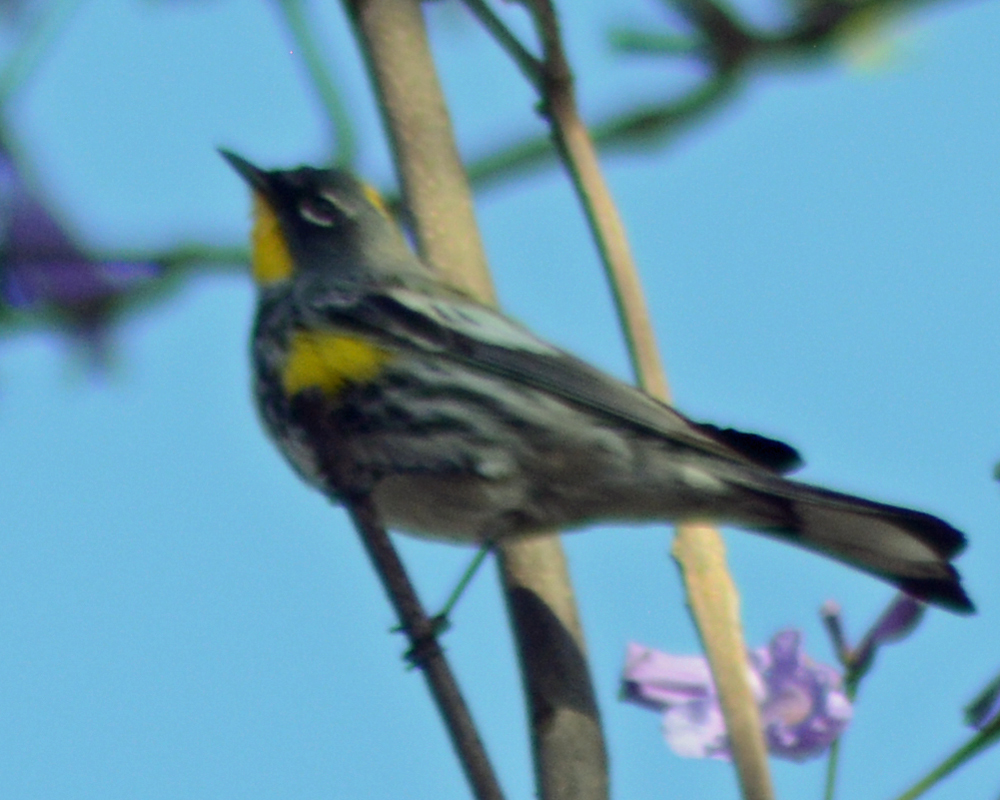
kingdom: Animalia
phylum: Chordata
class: Aves
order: Passeriformes
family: Parulidae
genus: Setophaga
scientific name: Setophaga auduboni
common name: Audubon's warbler
